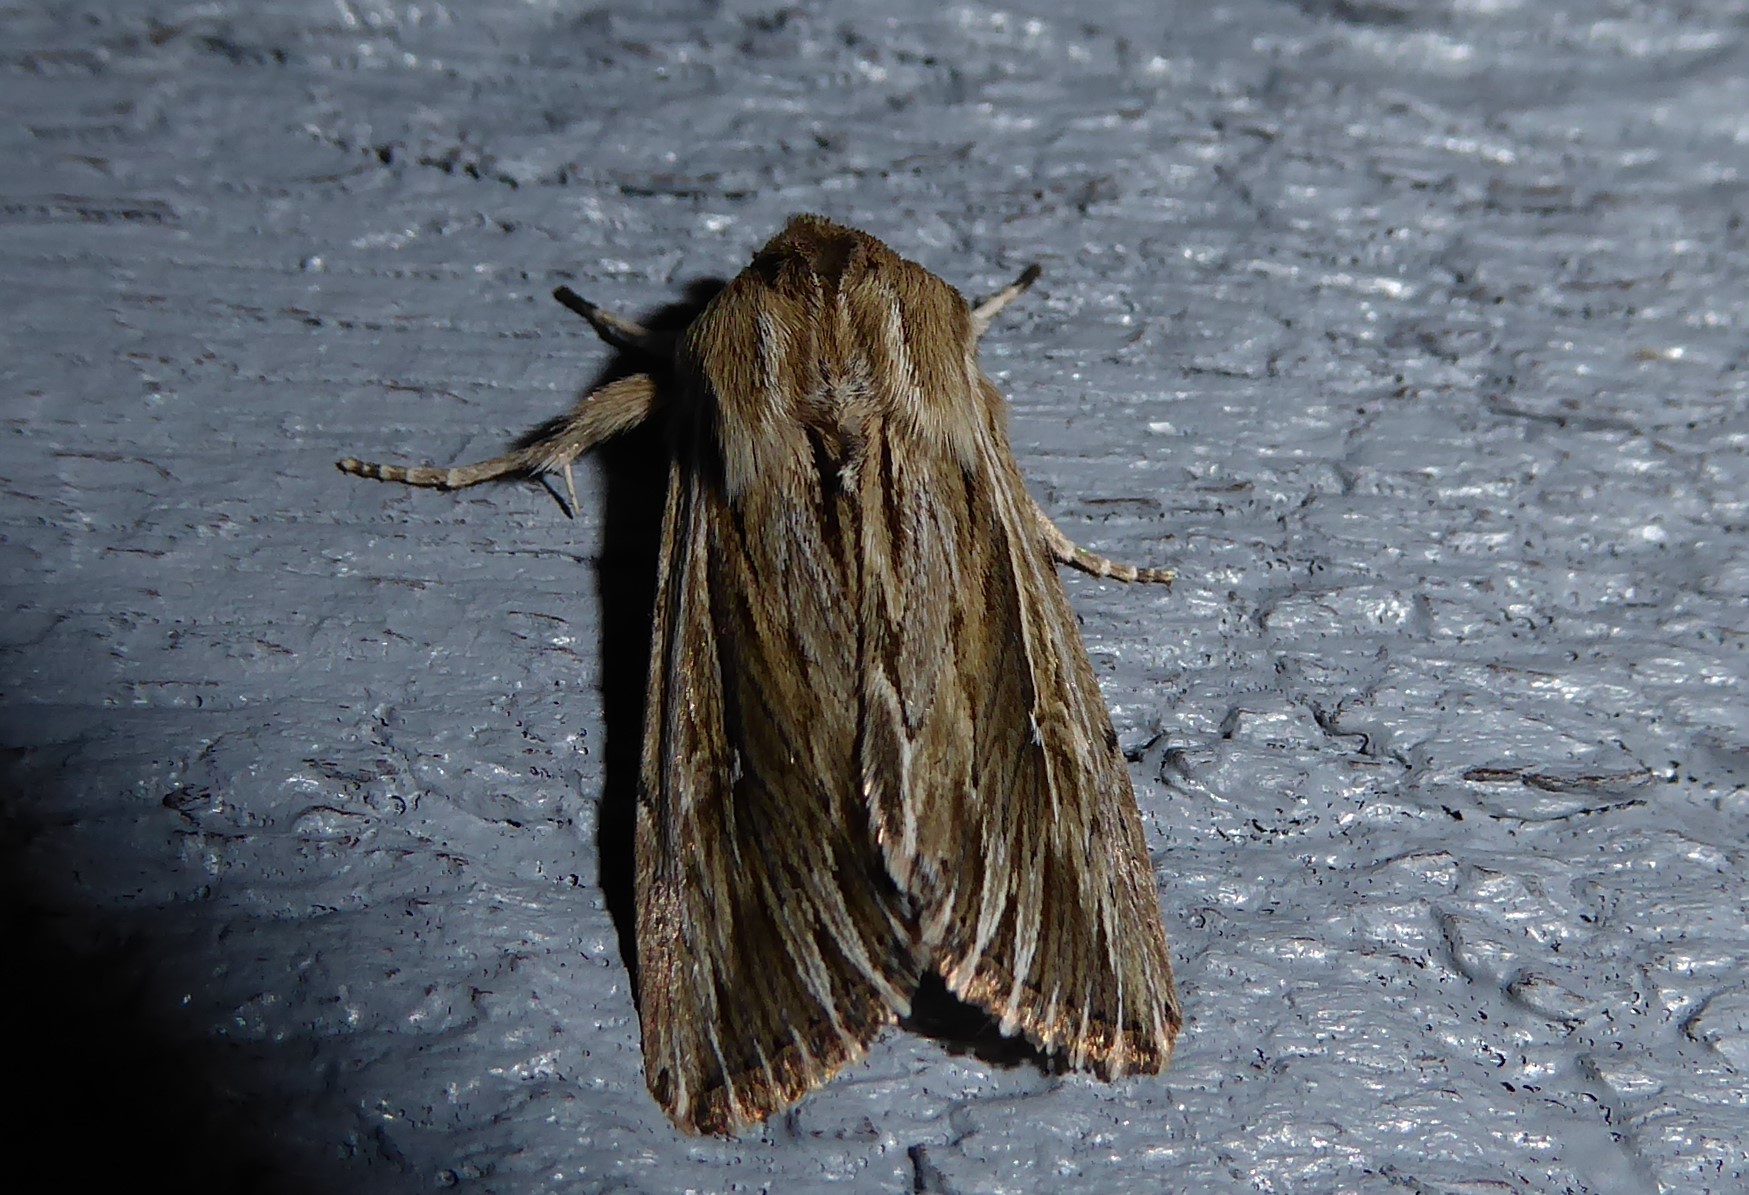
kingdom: Animalia
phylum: Arthropoda
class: Insecta
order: Lepidoptera
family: Noctuidae
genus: Persectania
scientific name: Persectania aversa
